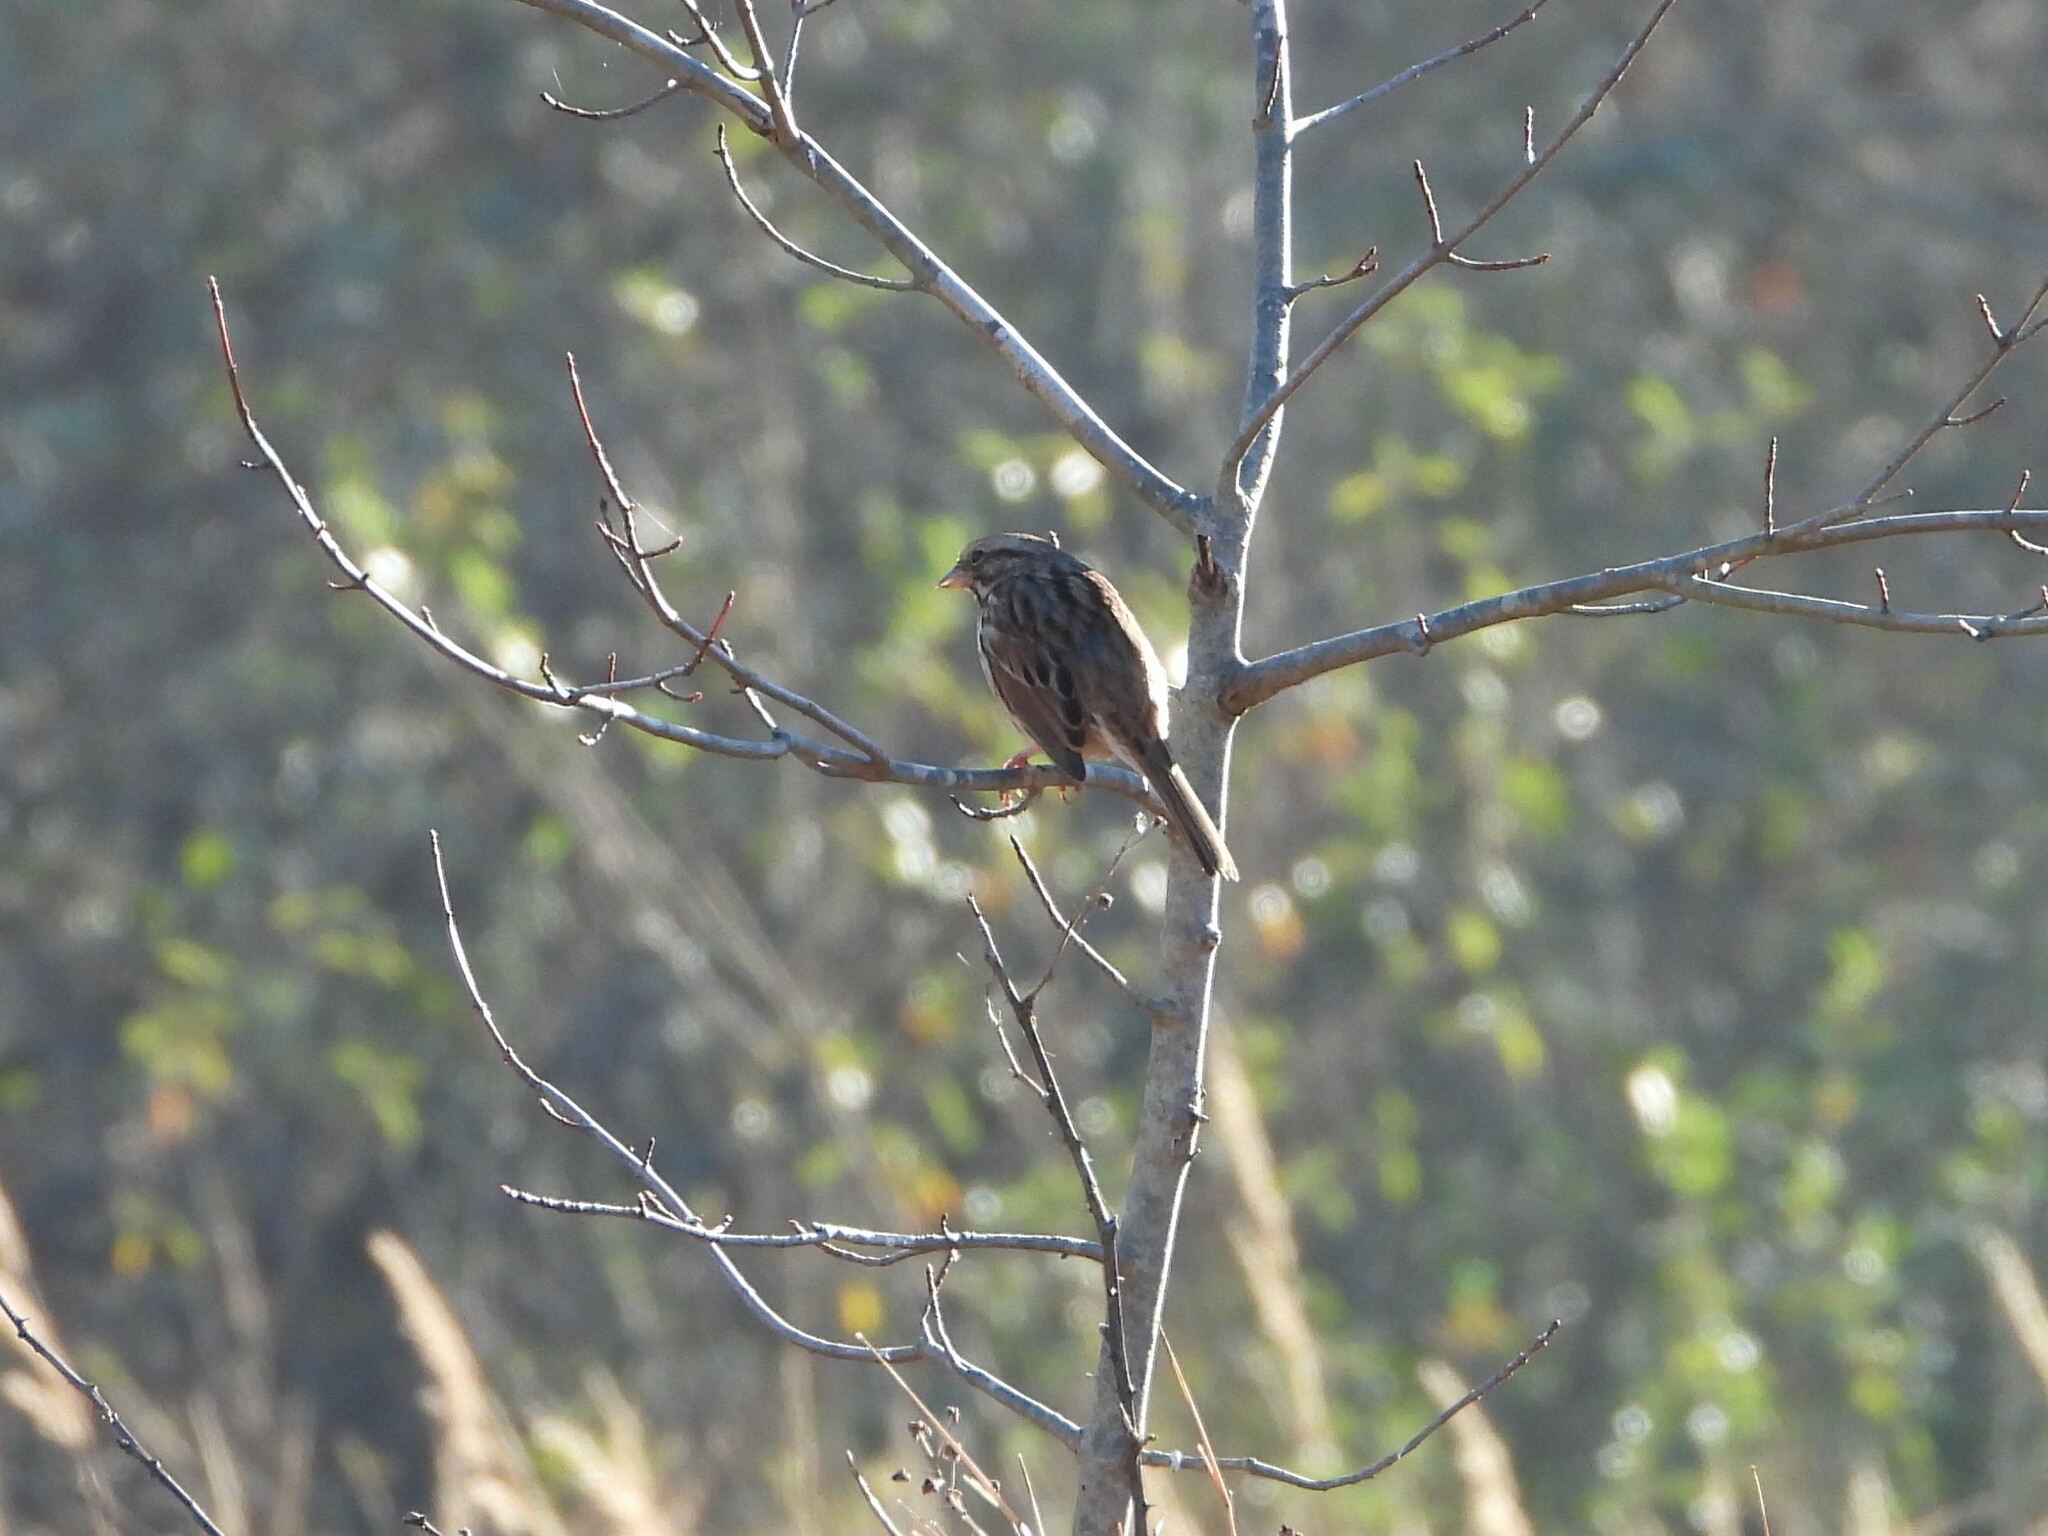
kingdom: Animalia
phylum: Chordata
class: Aves
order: Passeriformes
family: Passerellidae
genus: Melospiza
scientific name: Melospiza melodia
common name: Song sparrow
